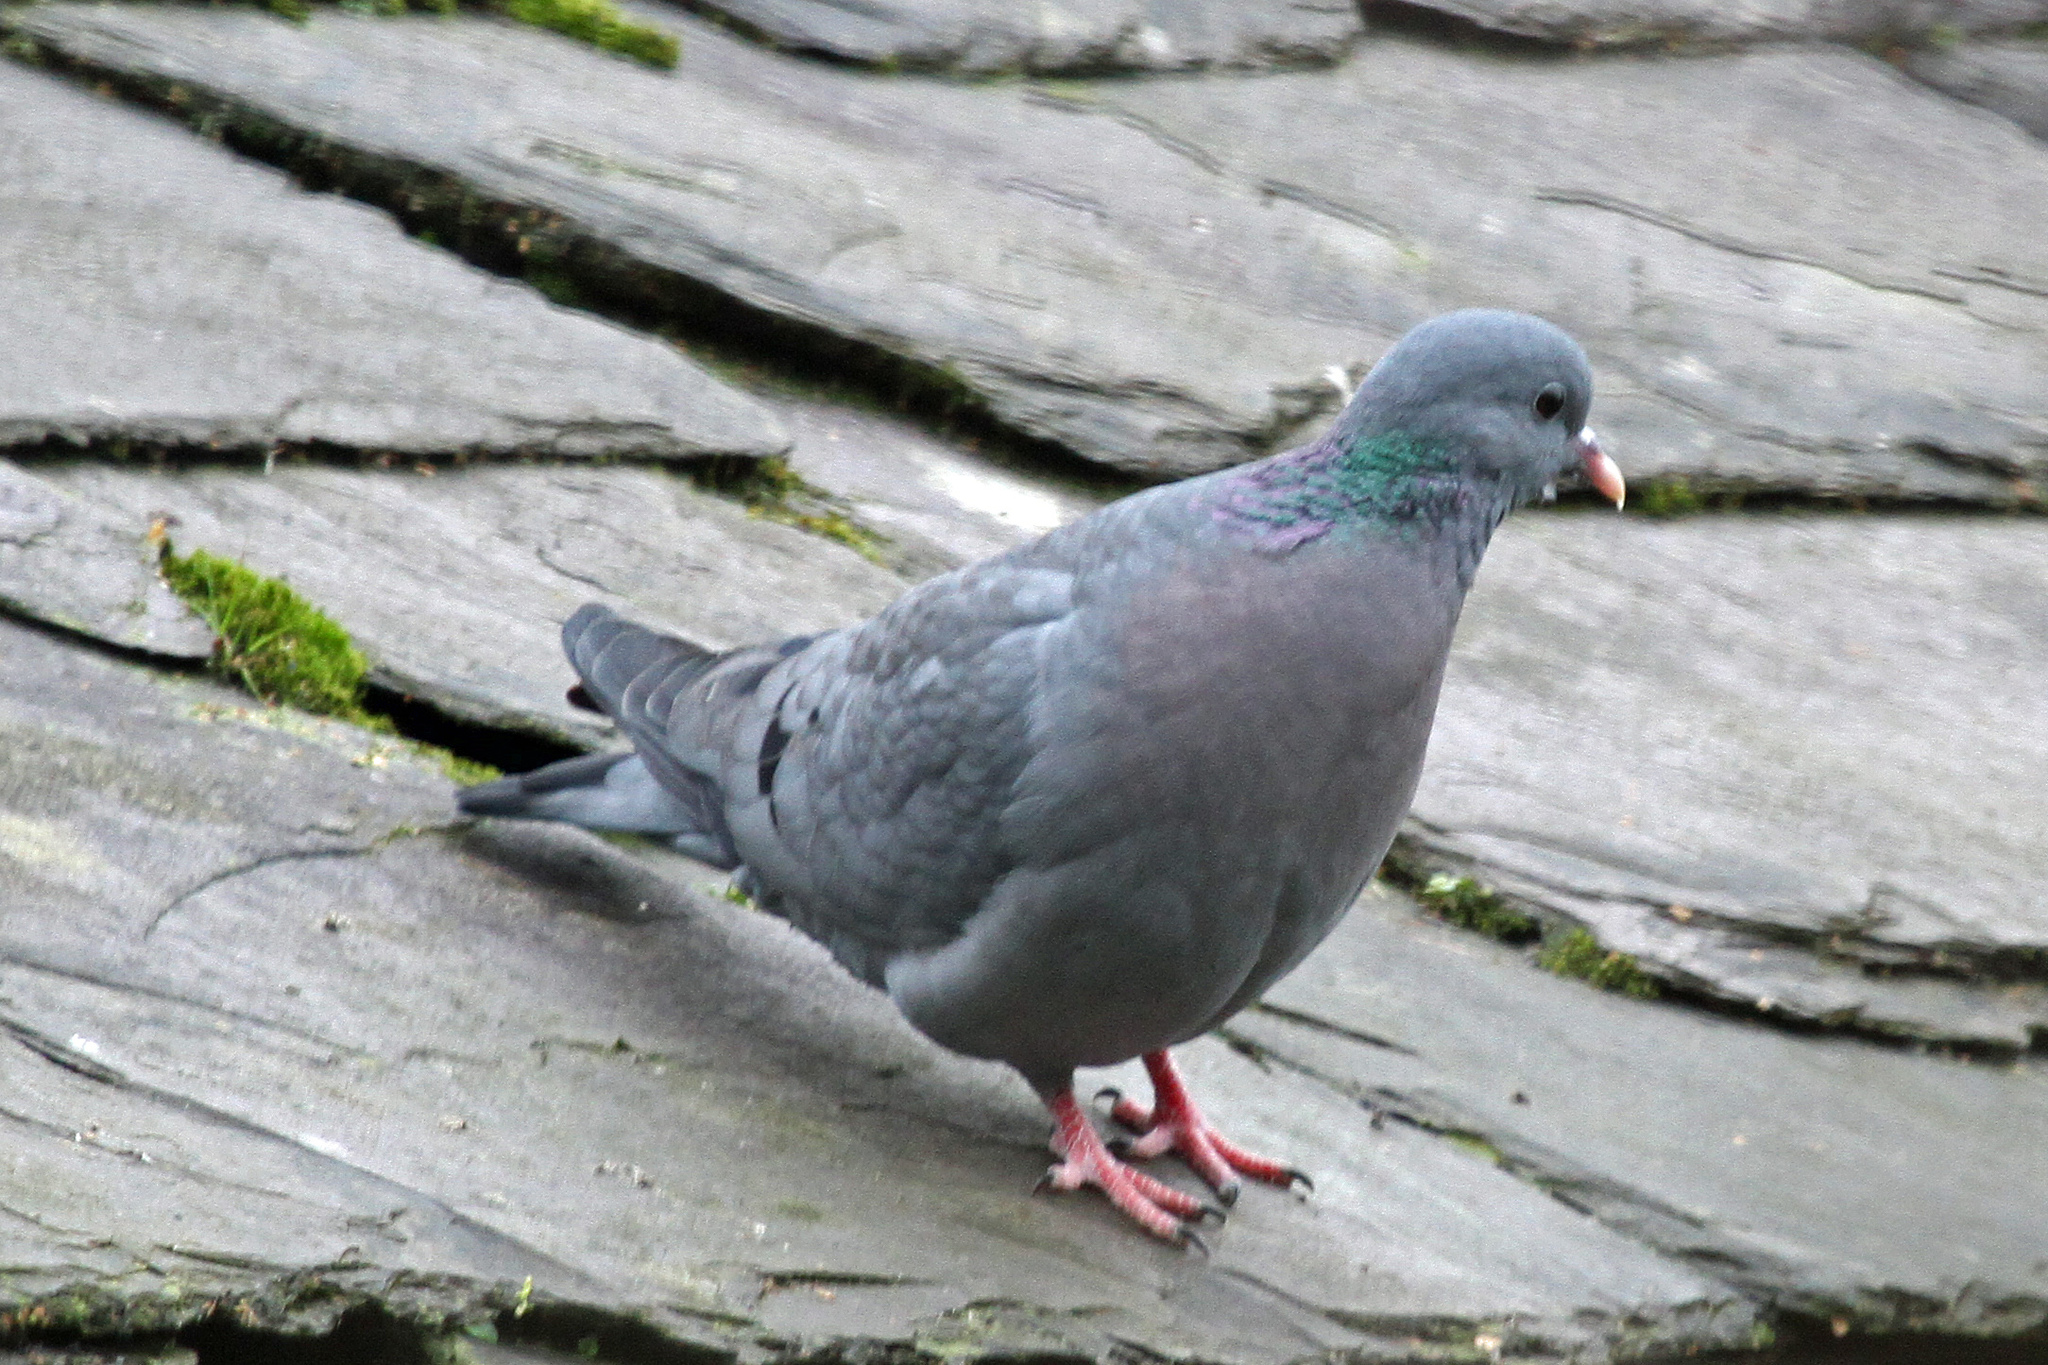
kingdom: Animalia
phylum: Chordata
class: Aves
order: Columbiformes
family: Columbidae
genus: Columba
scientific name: Columba oenas
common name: Stock dove
